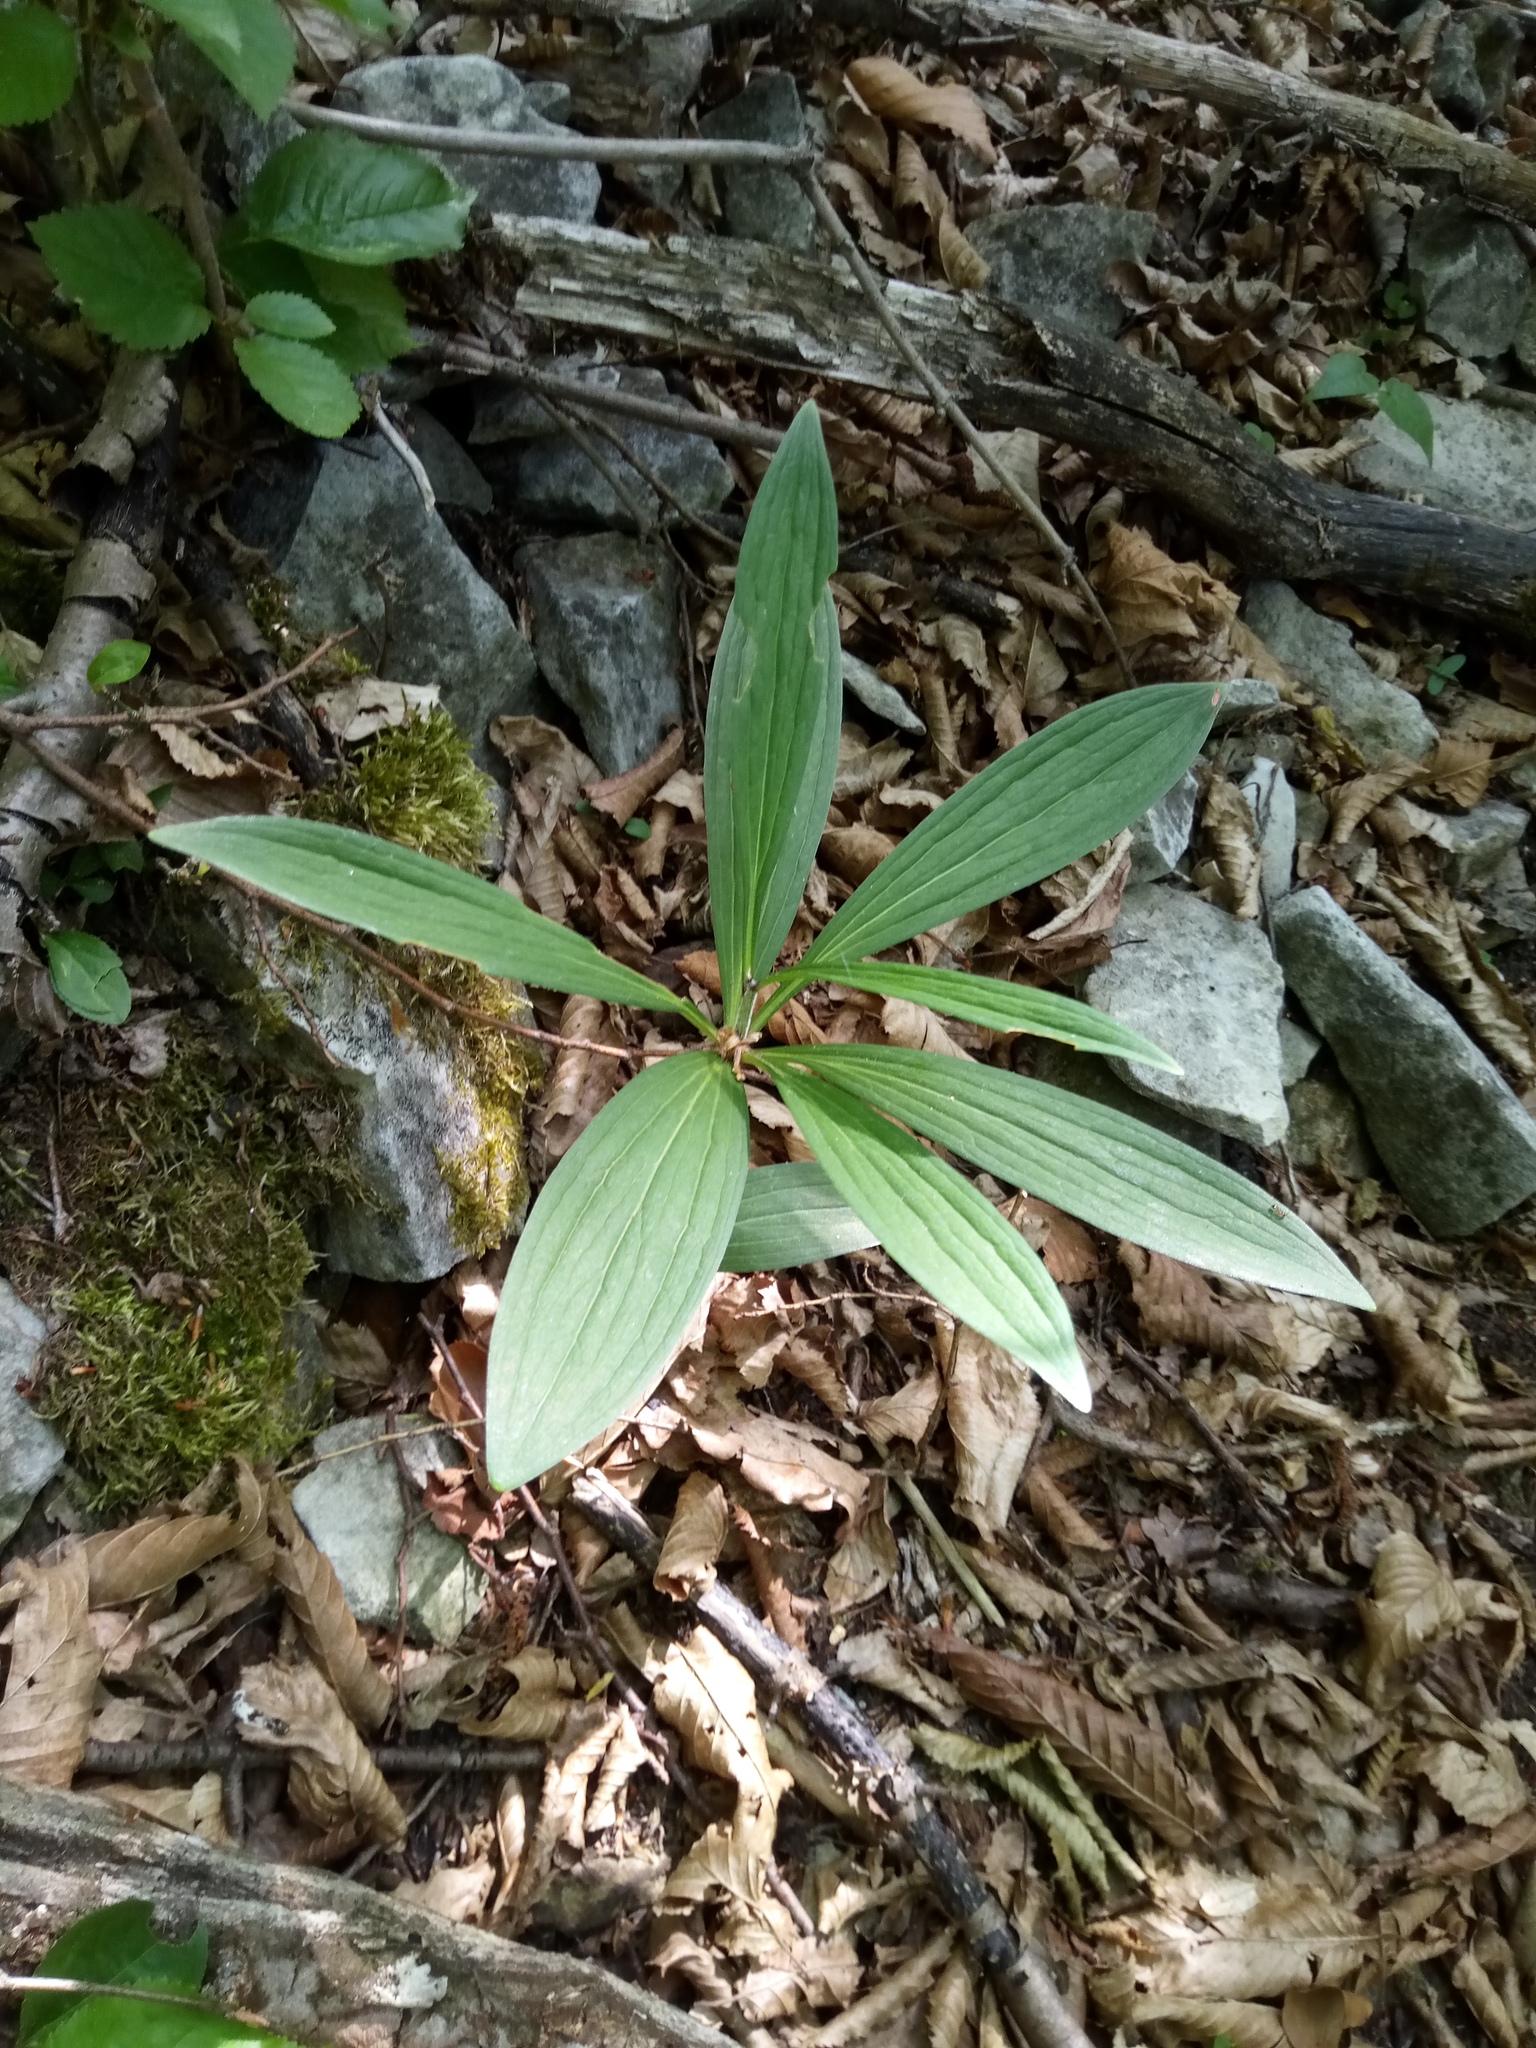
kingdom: Plantae
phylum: Tracheophyta
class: Liliopsida
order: Liliales
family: Liliaceae
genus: Lilium
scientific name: Lilium martagon
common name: Martagon lily
